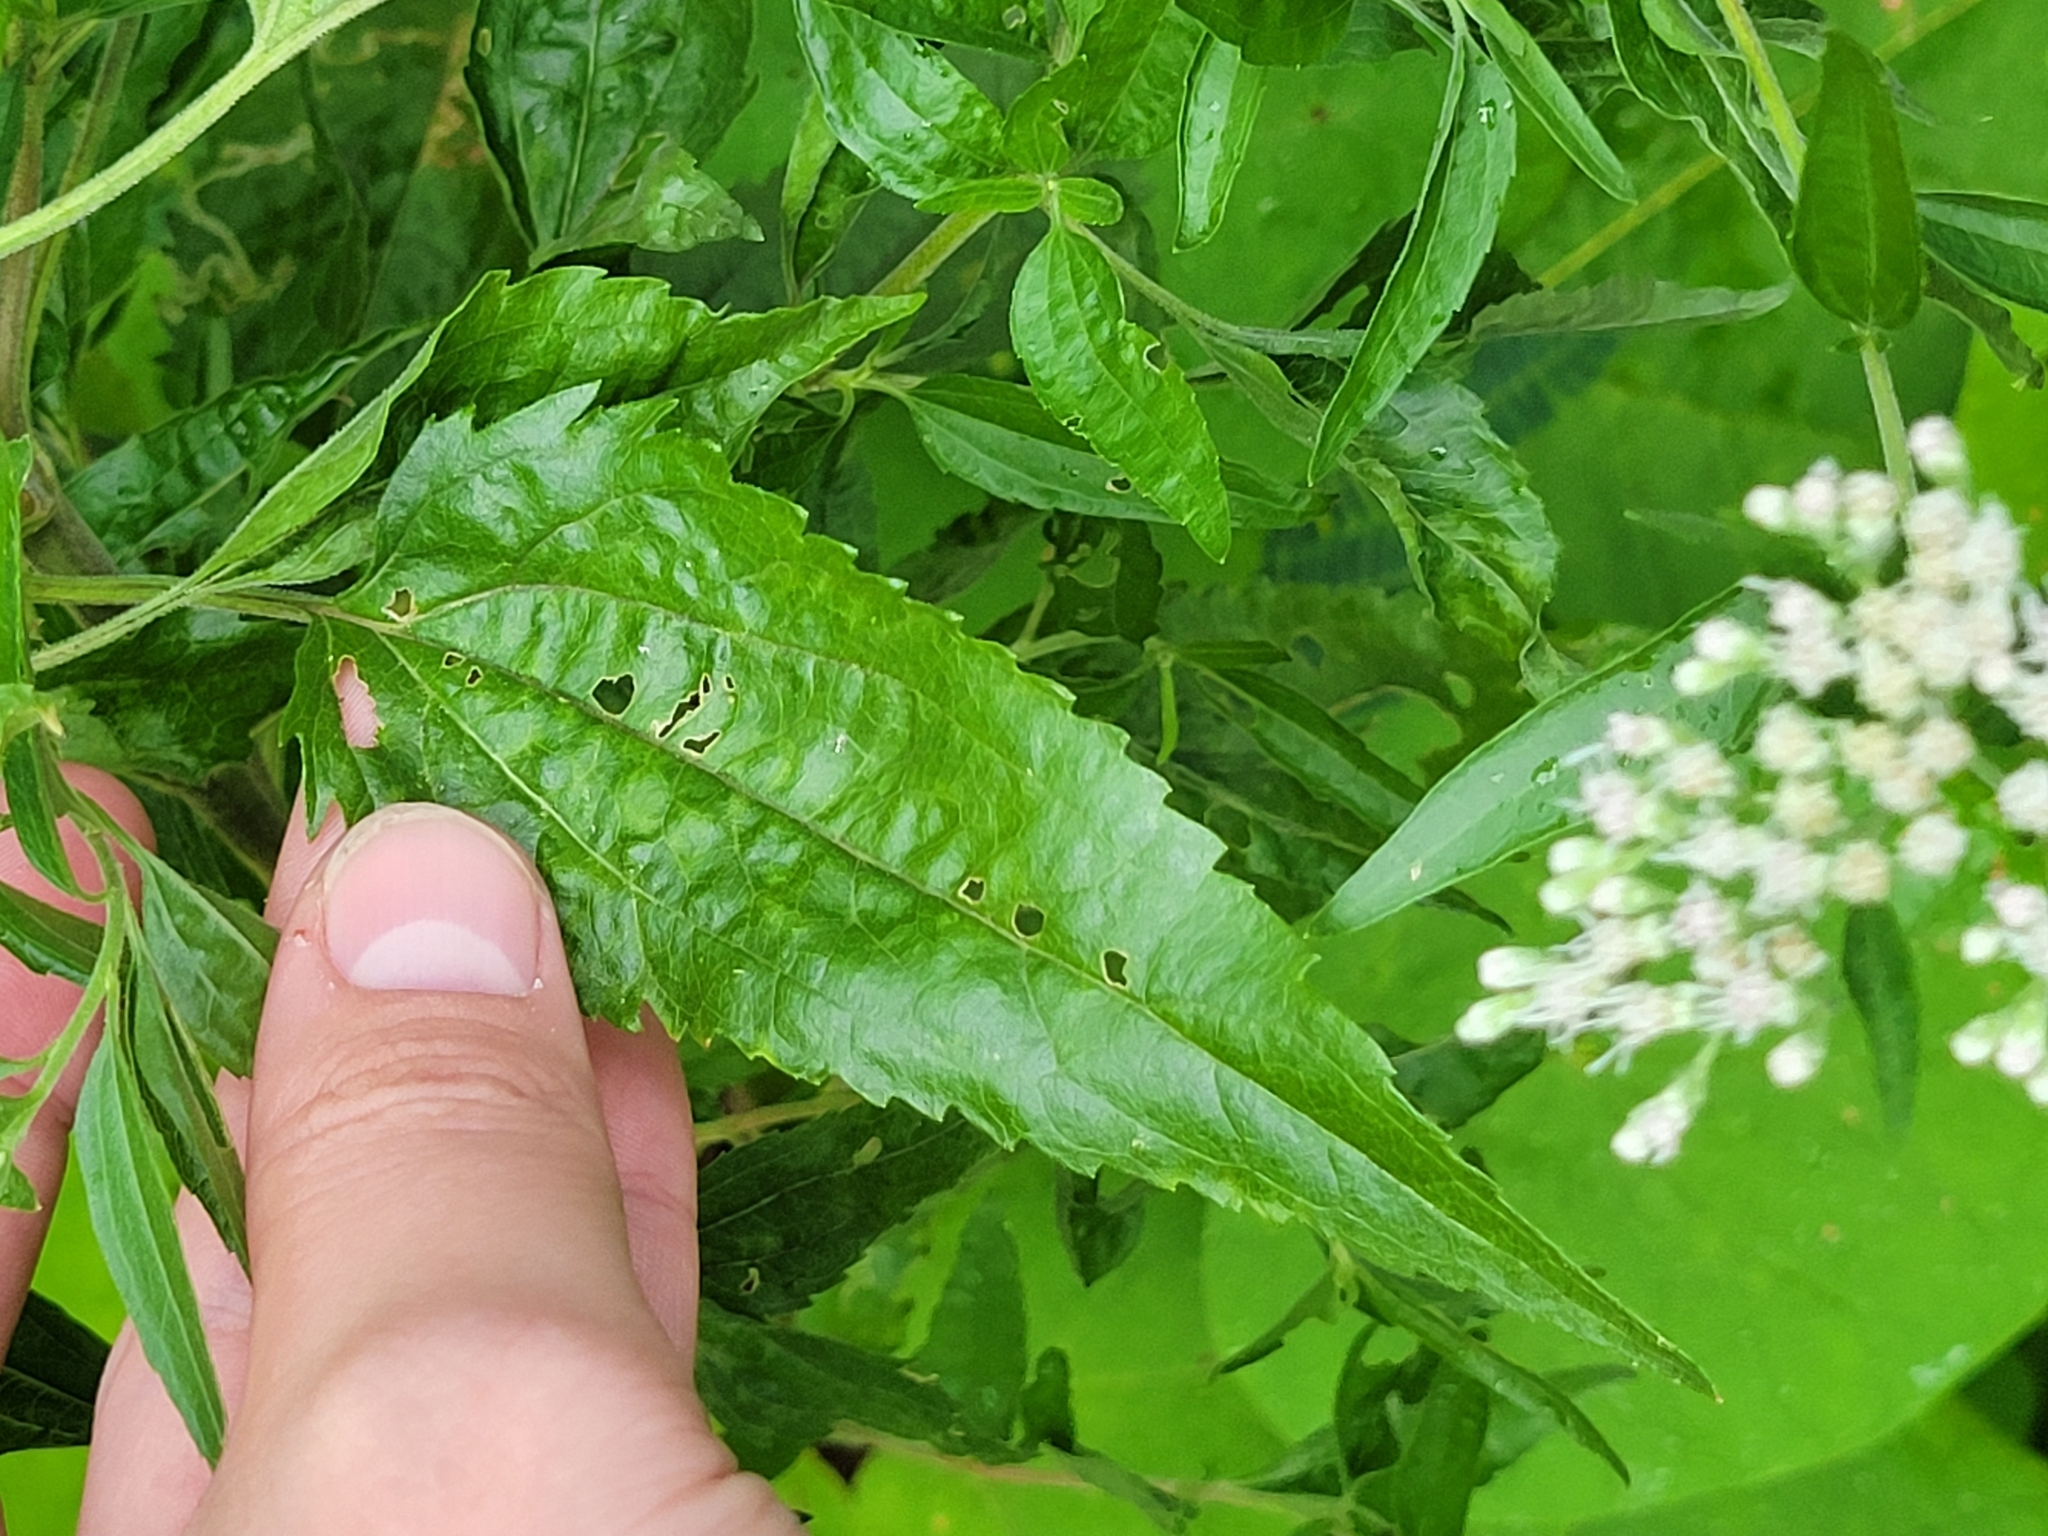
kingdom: Plantae
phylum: Tracheophyta
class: Magnoliopsida
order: Asterales
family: Asteraceae
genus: Eupatorium
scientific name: Eupatorium serotinum
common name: Late boneset
